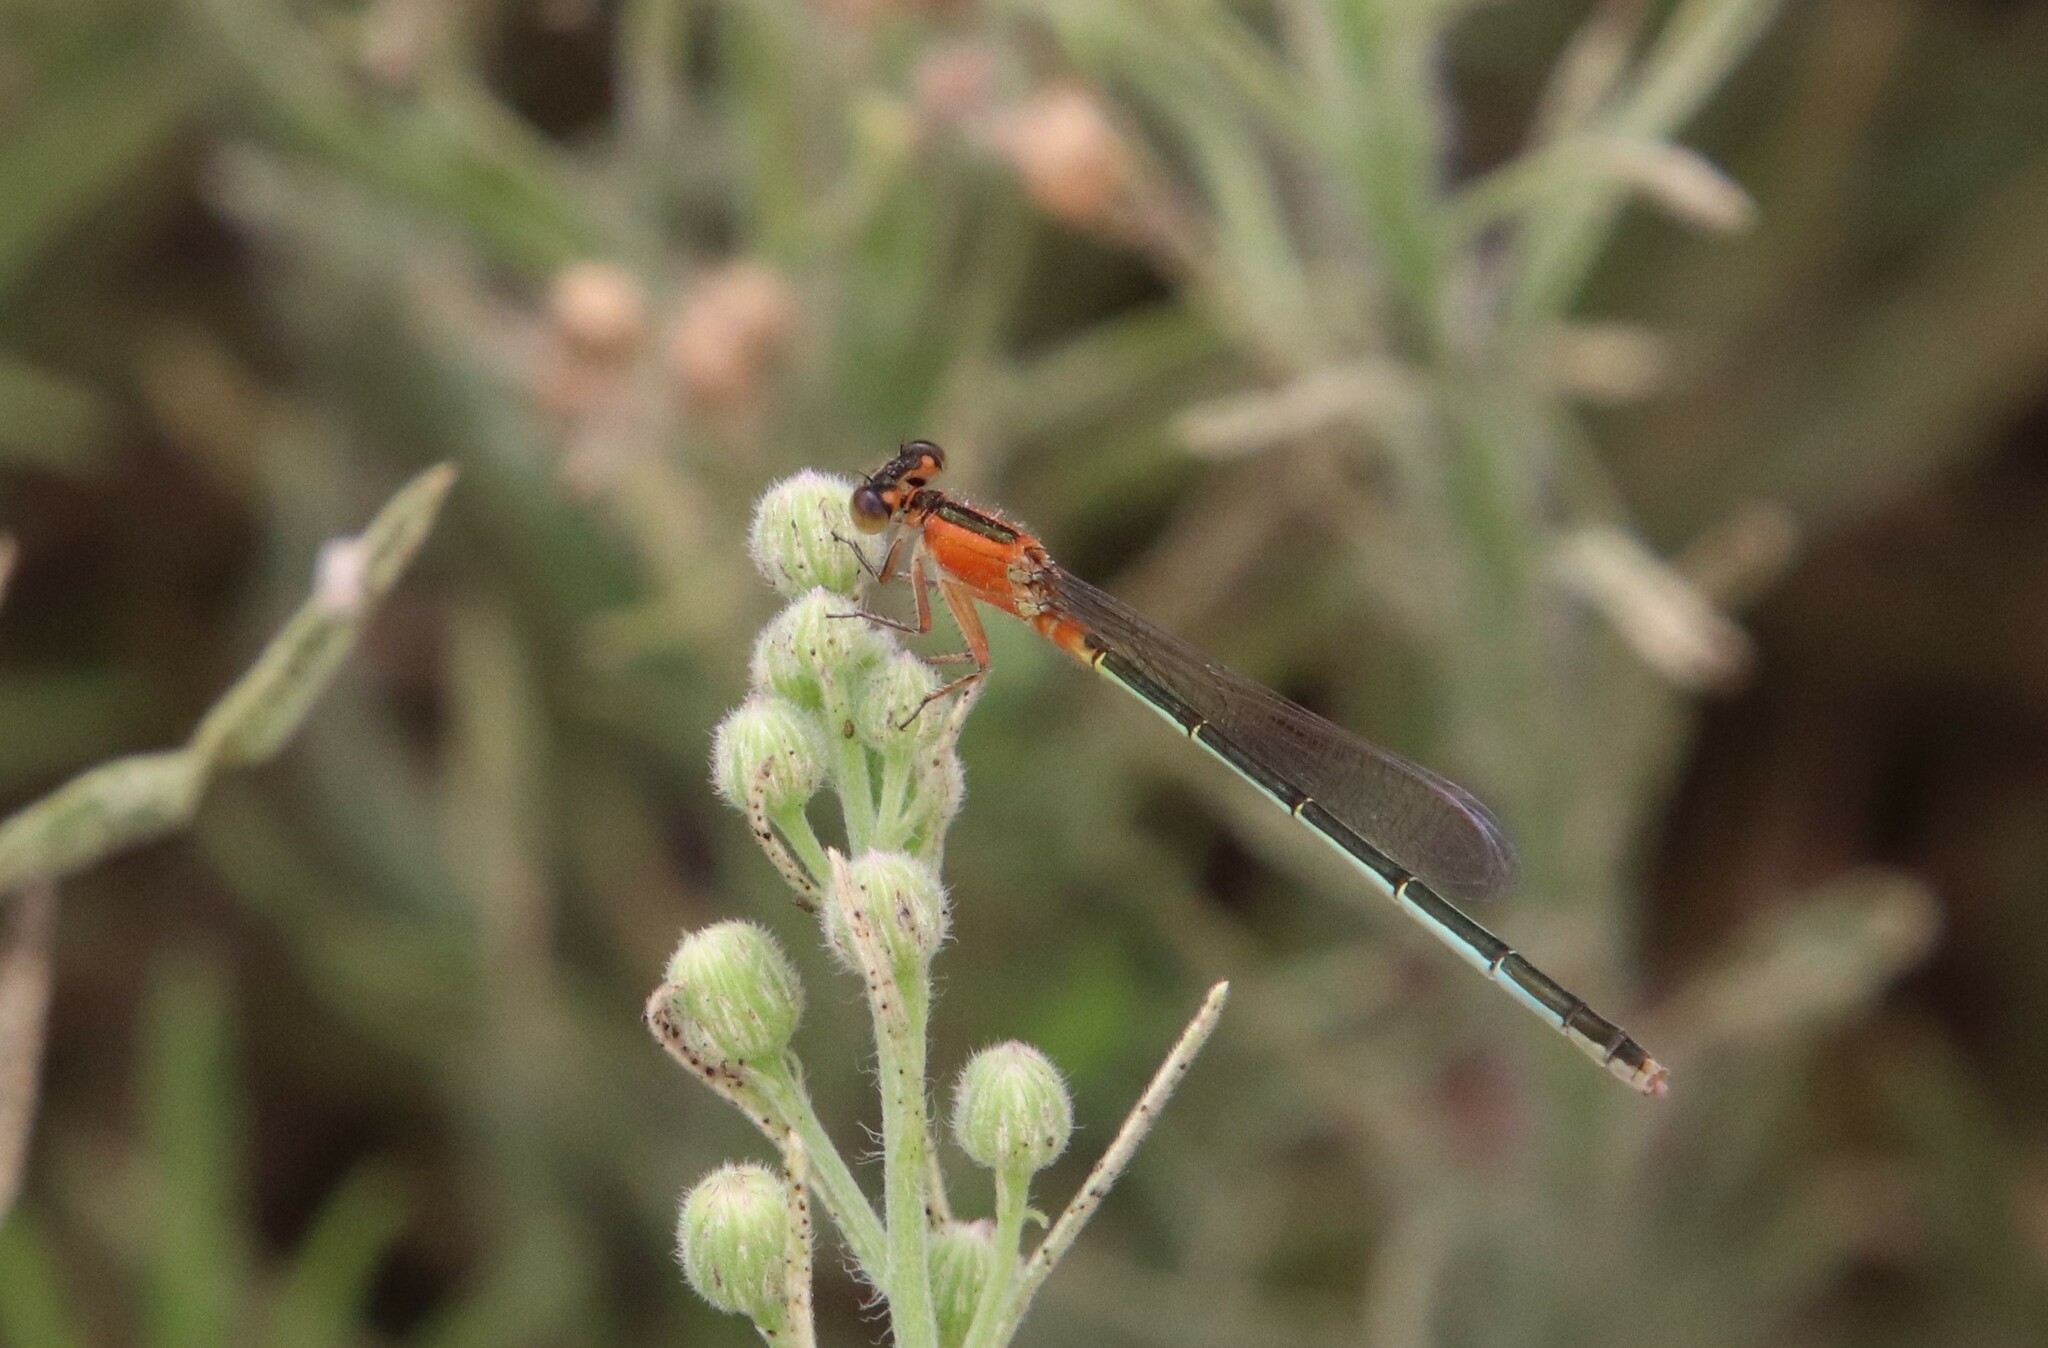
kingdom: Animalia
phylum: Arthropoda
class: Insecta
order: Odonata
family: Coenagrionidae
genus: Ischnura
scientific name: Ischnura ramburii
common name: Rambur's forktail
